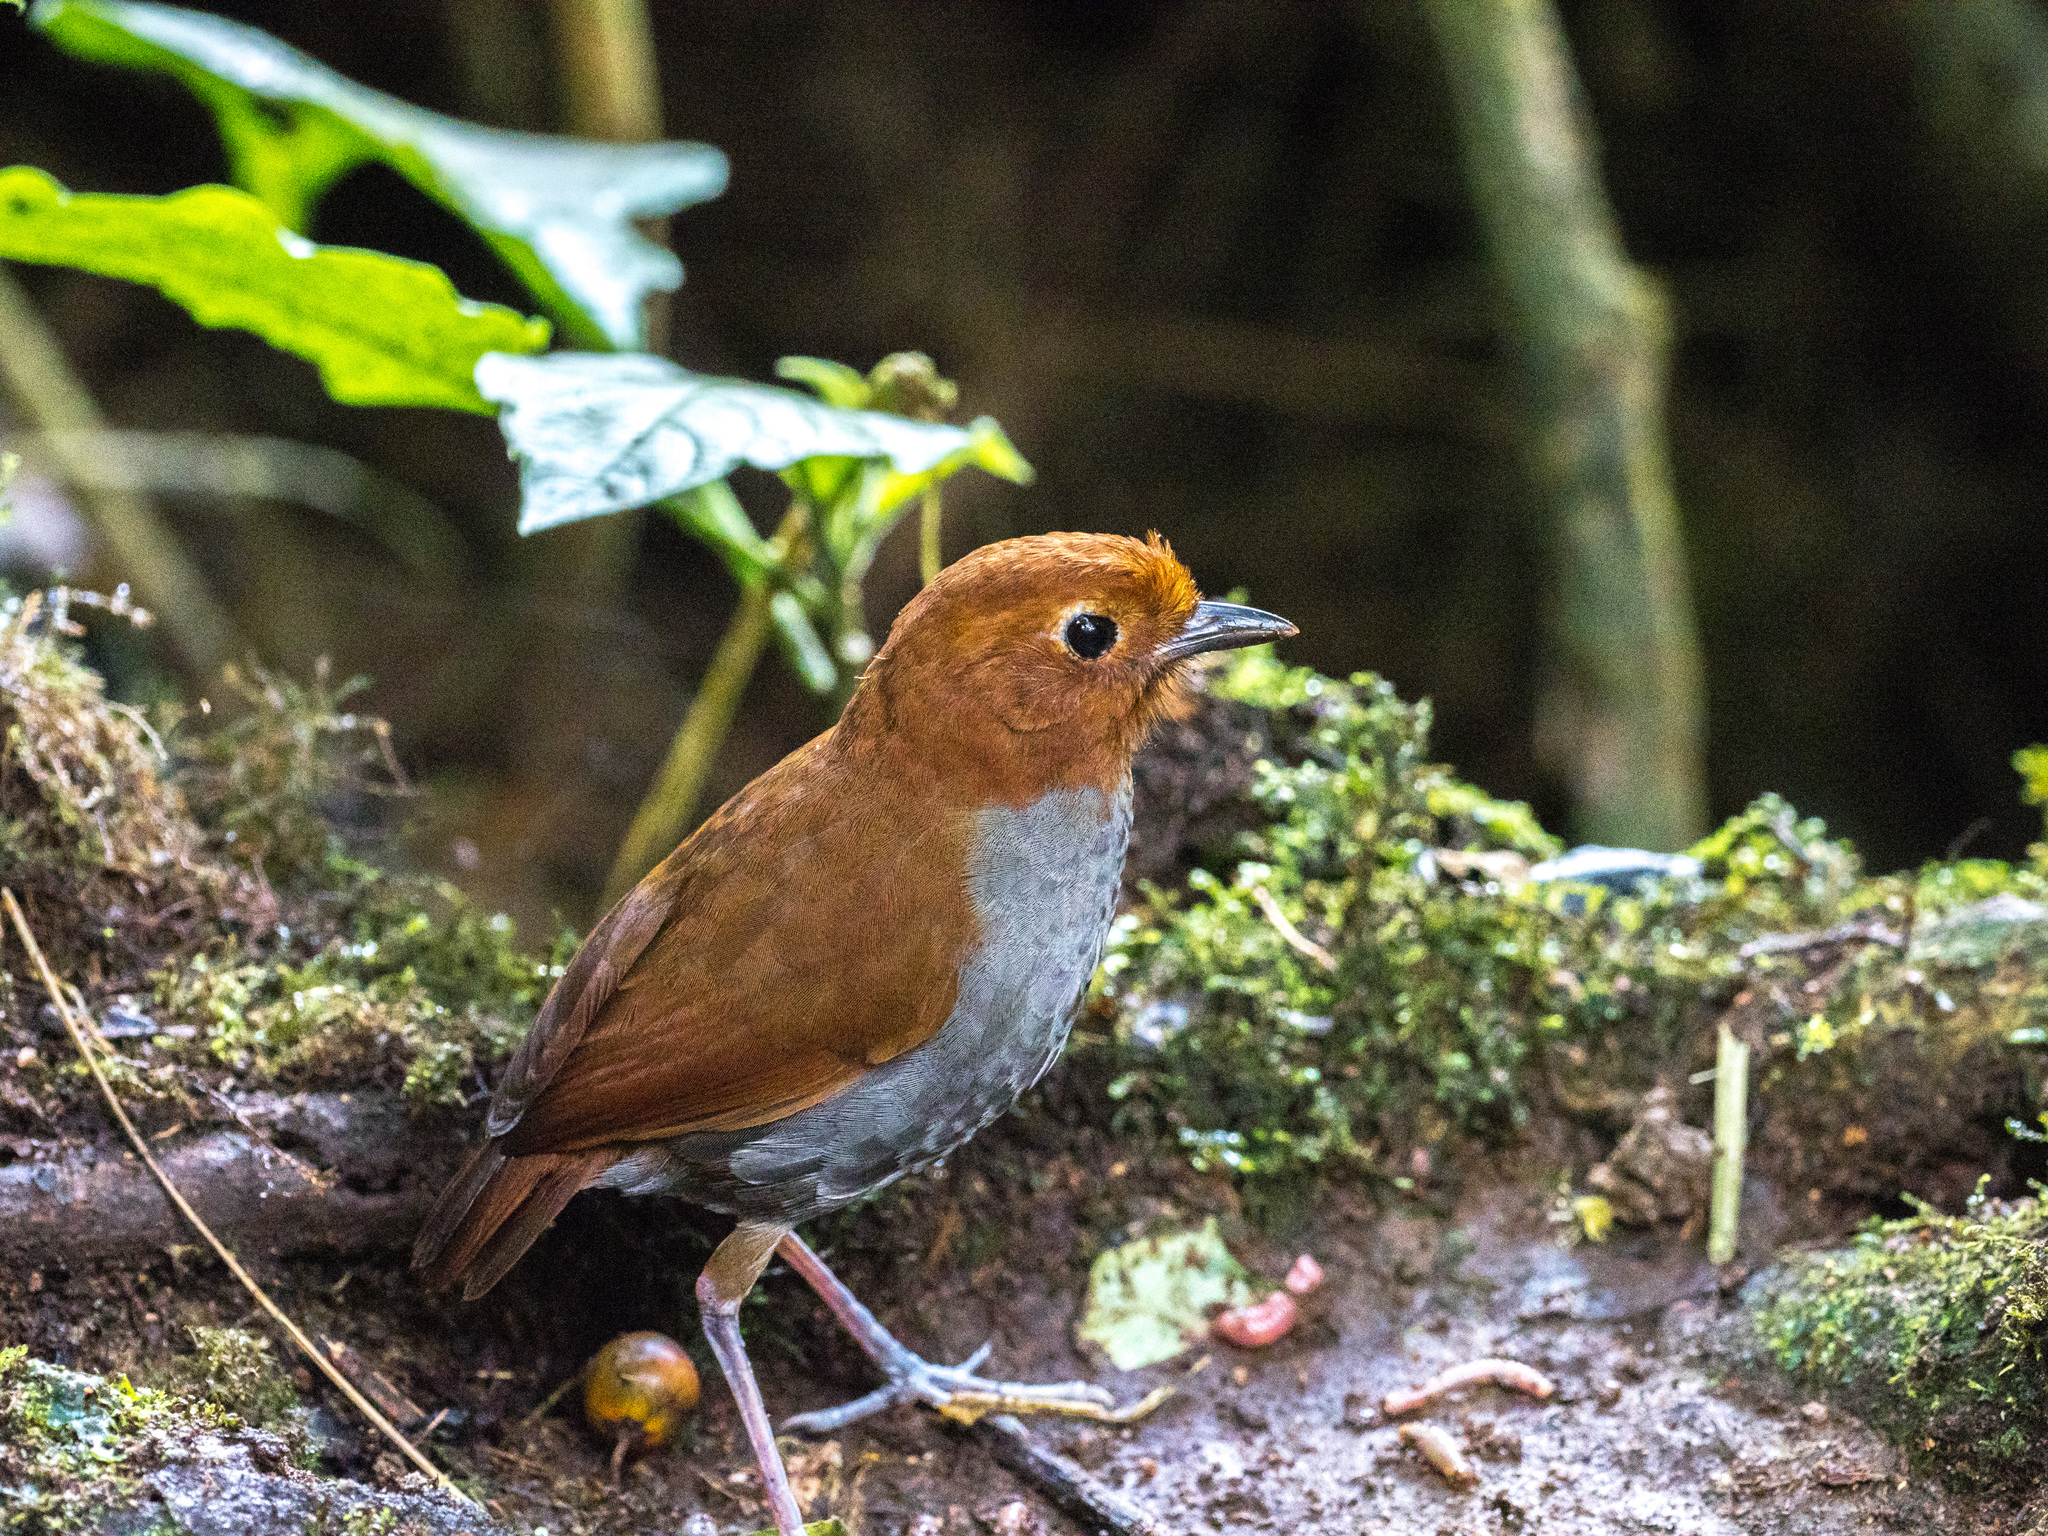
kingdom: Animalia
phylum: Chordata
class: Aves
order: Passeriformes
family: Grallariidae
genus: Grallaria
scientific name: Grallaria rufocinerea
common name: Bicolored antpitta
